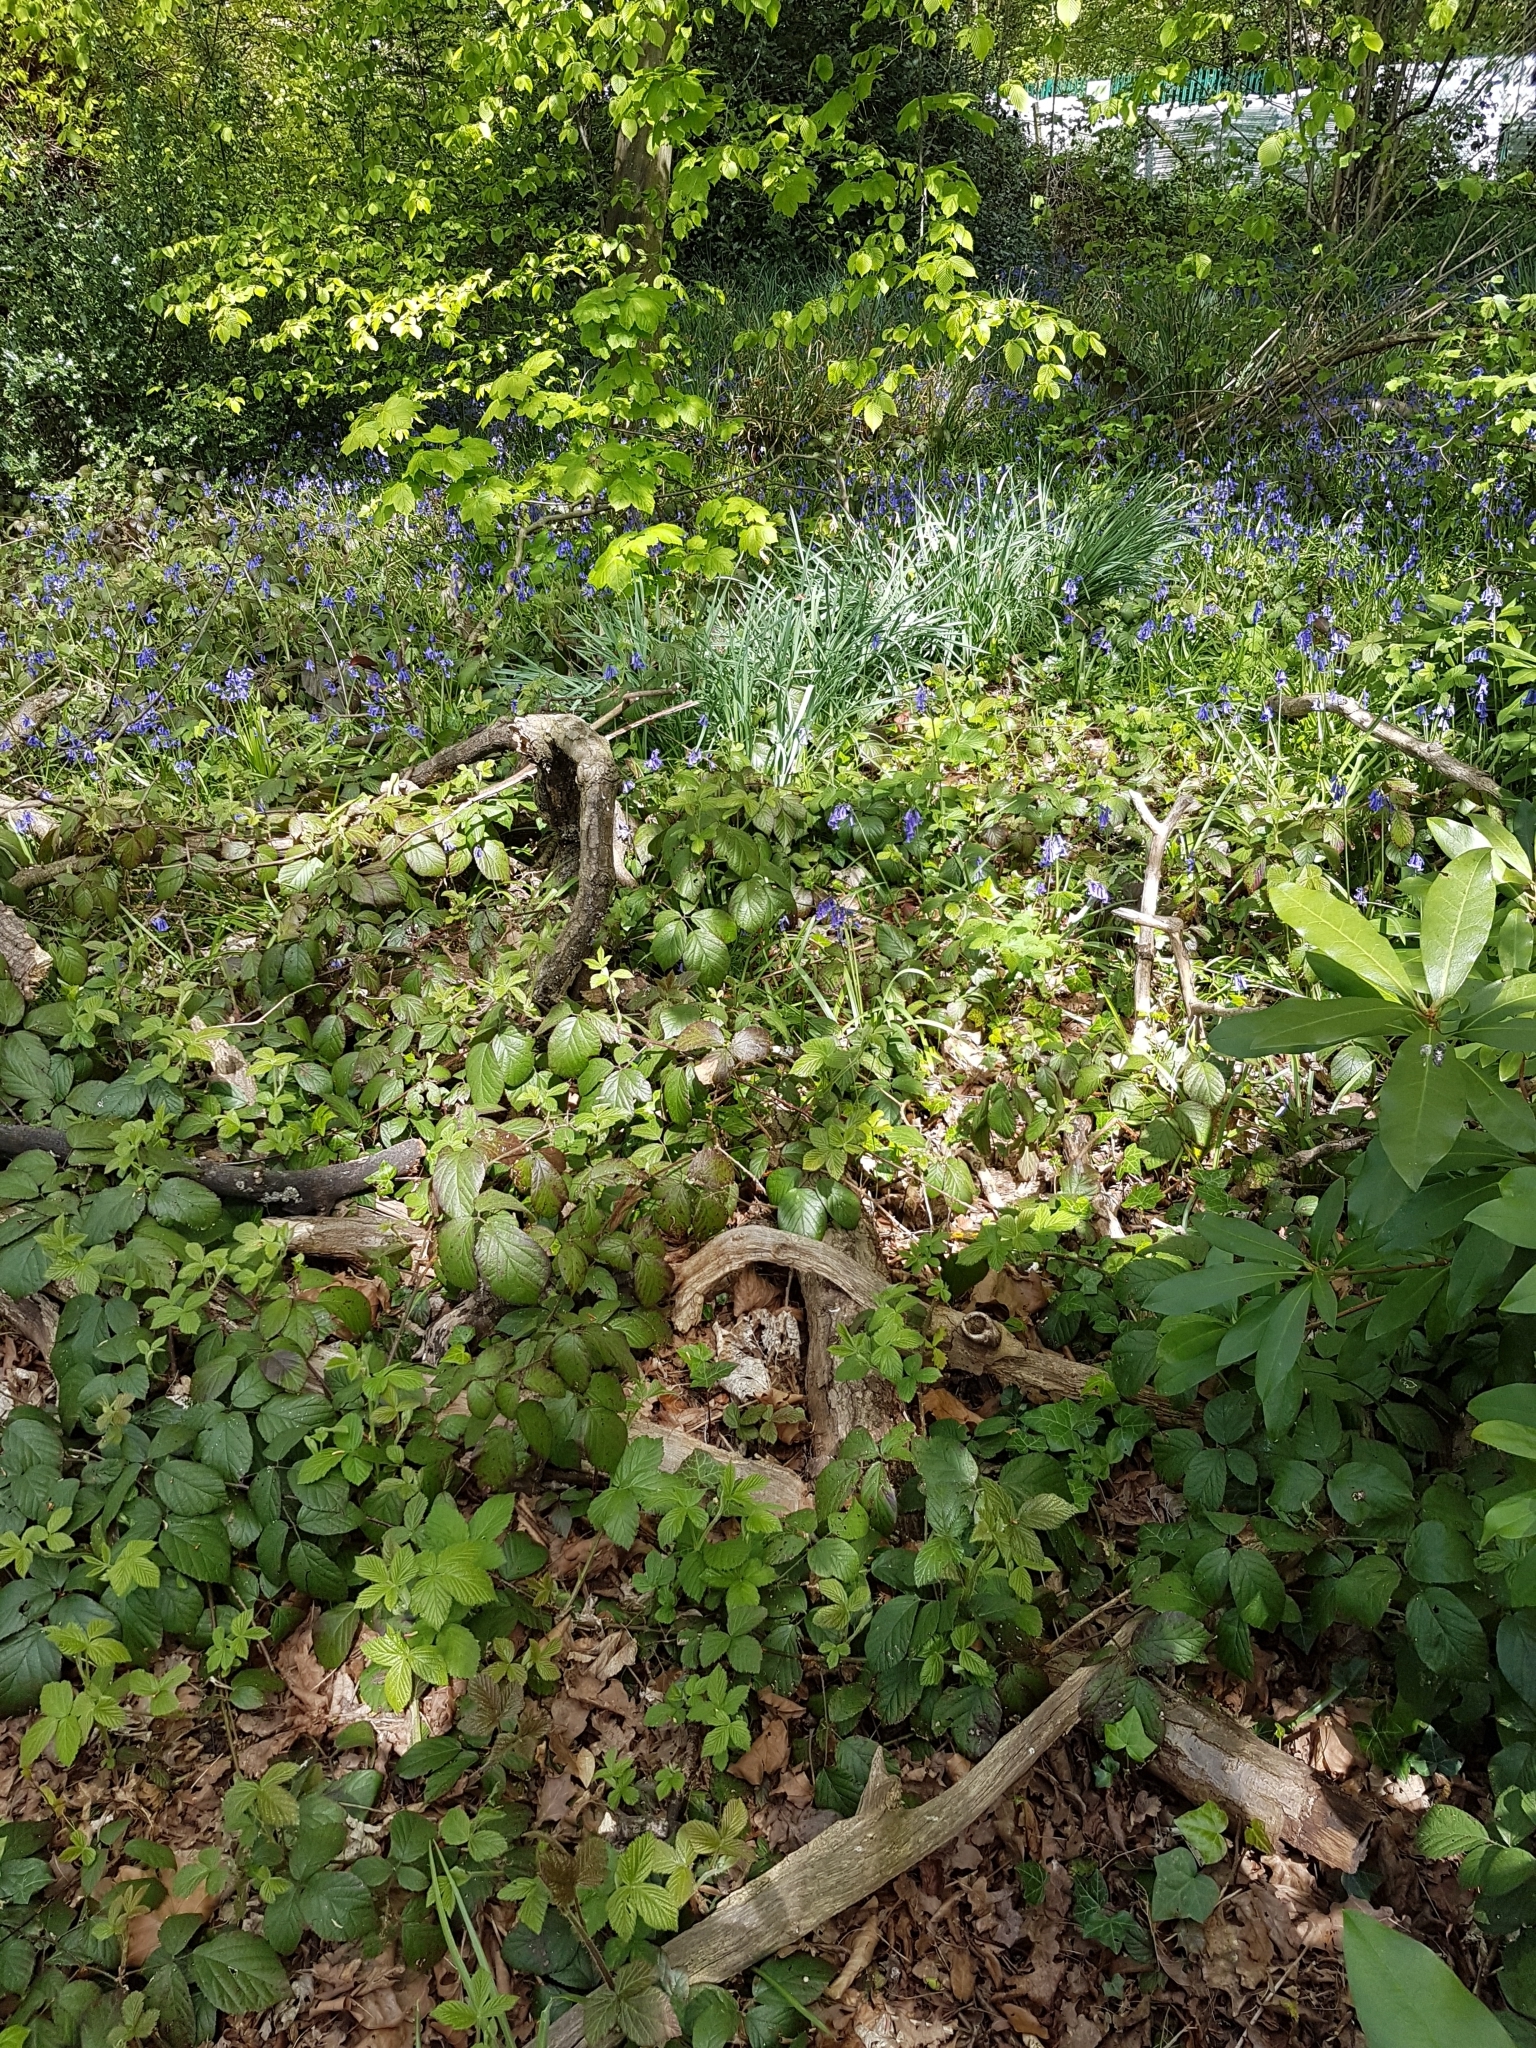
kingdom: Plantae
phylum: Tracheophyta
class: Liliopsida
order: Asparagales
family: Asparagaceae
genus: Hyacinthoides
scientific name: Hyacinthoides non-scripta
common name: Bluebell
